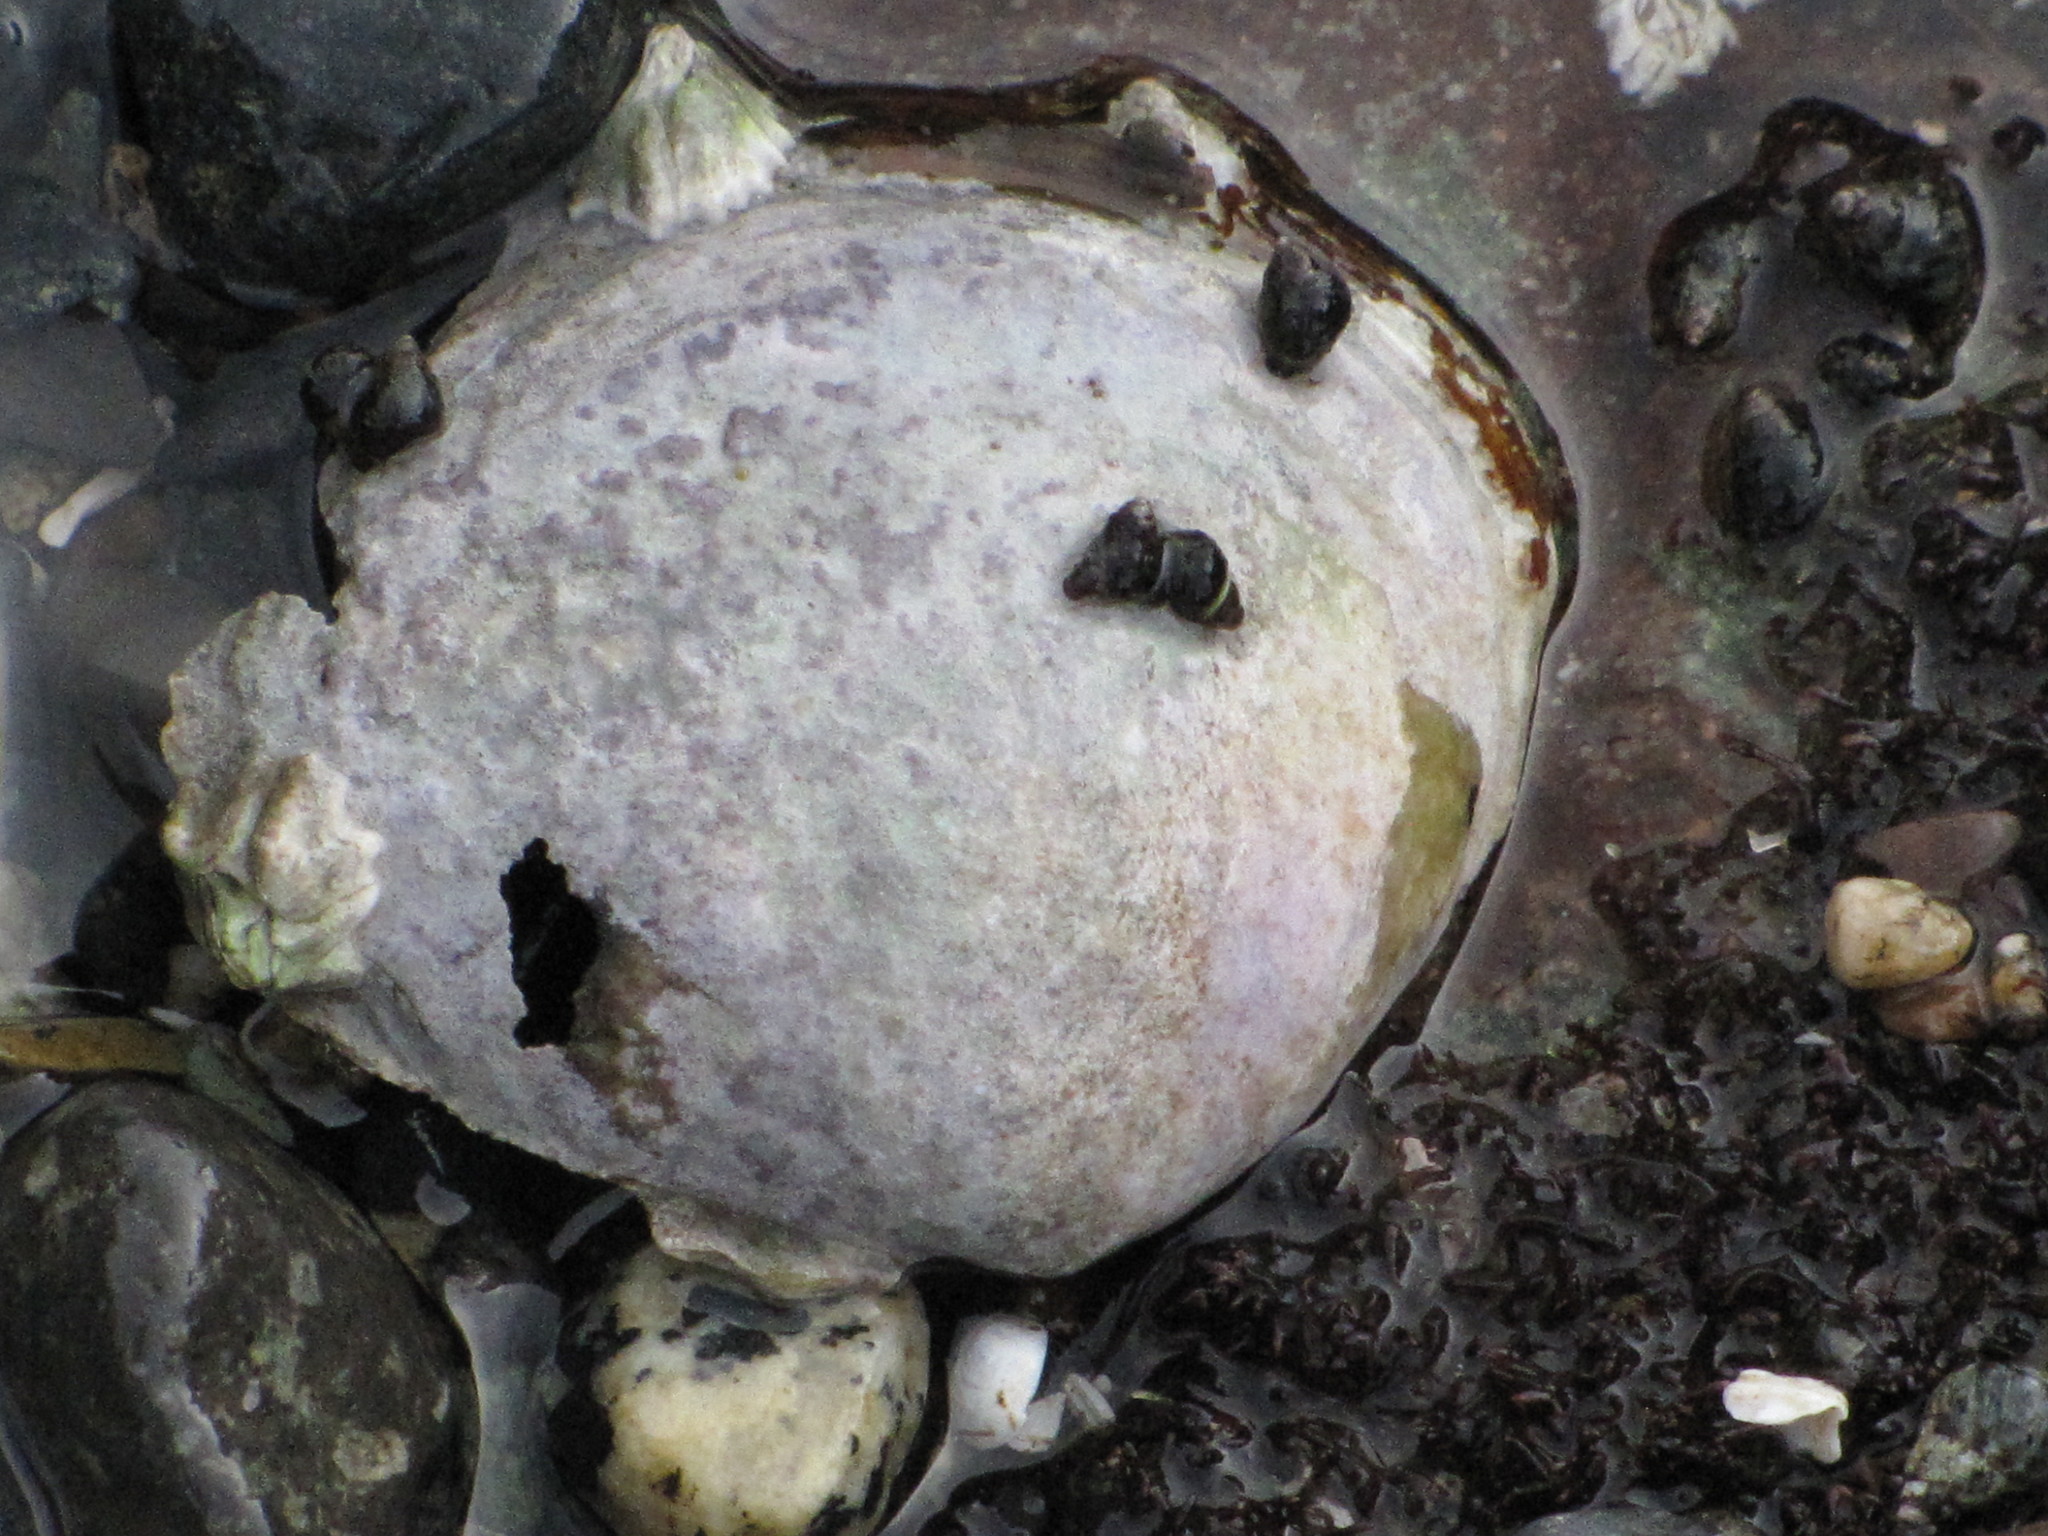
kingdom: Animalia
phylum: Mollusca
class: Bivalvia
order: Cardiida
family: Psammobiidae
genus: Nuttallia
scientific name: Nuttallia obscurata
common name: Purple mahogany-clam
